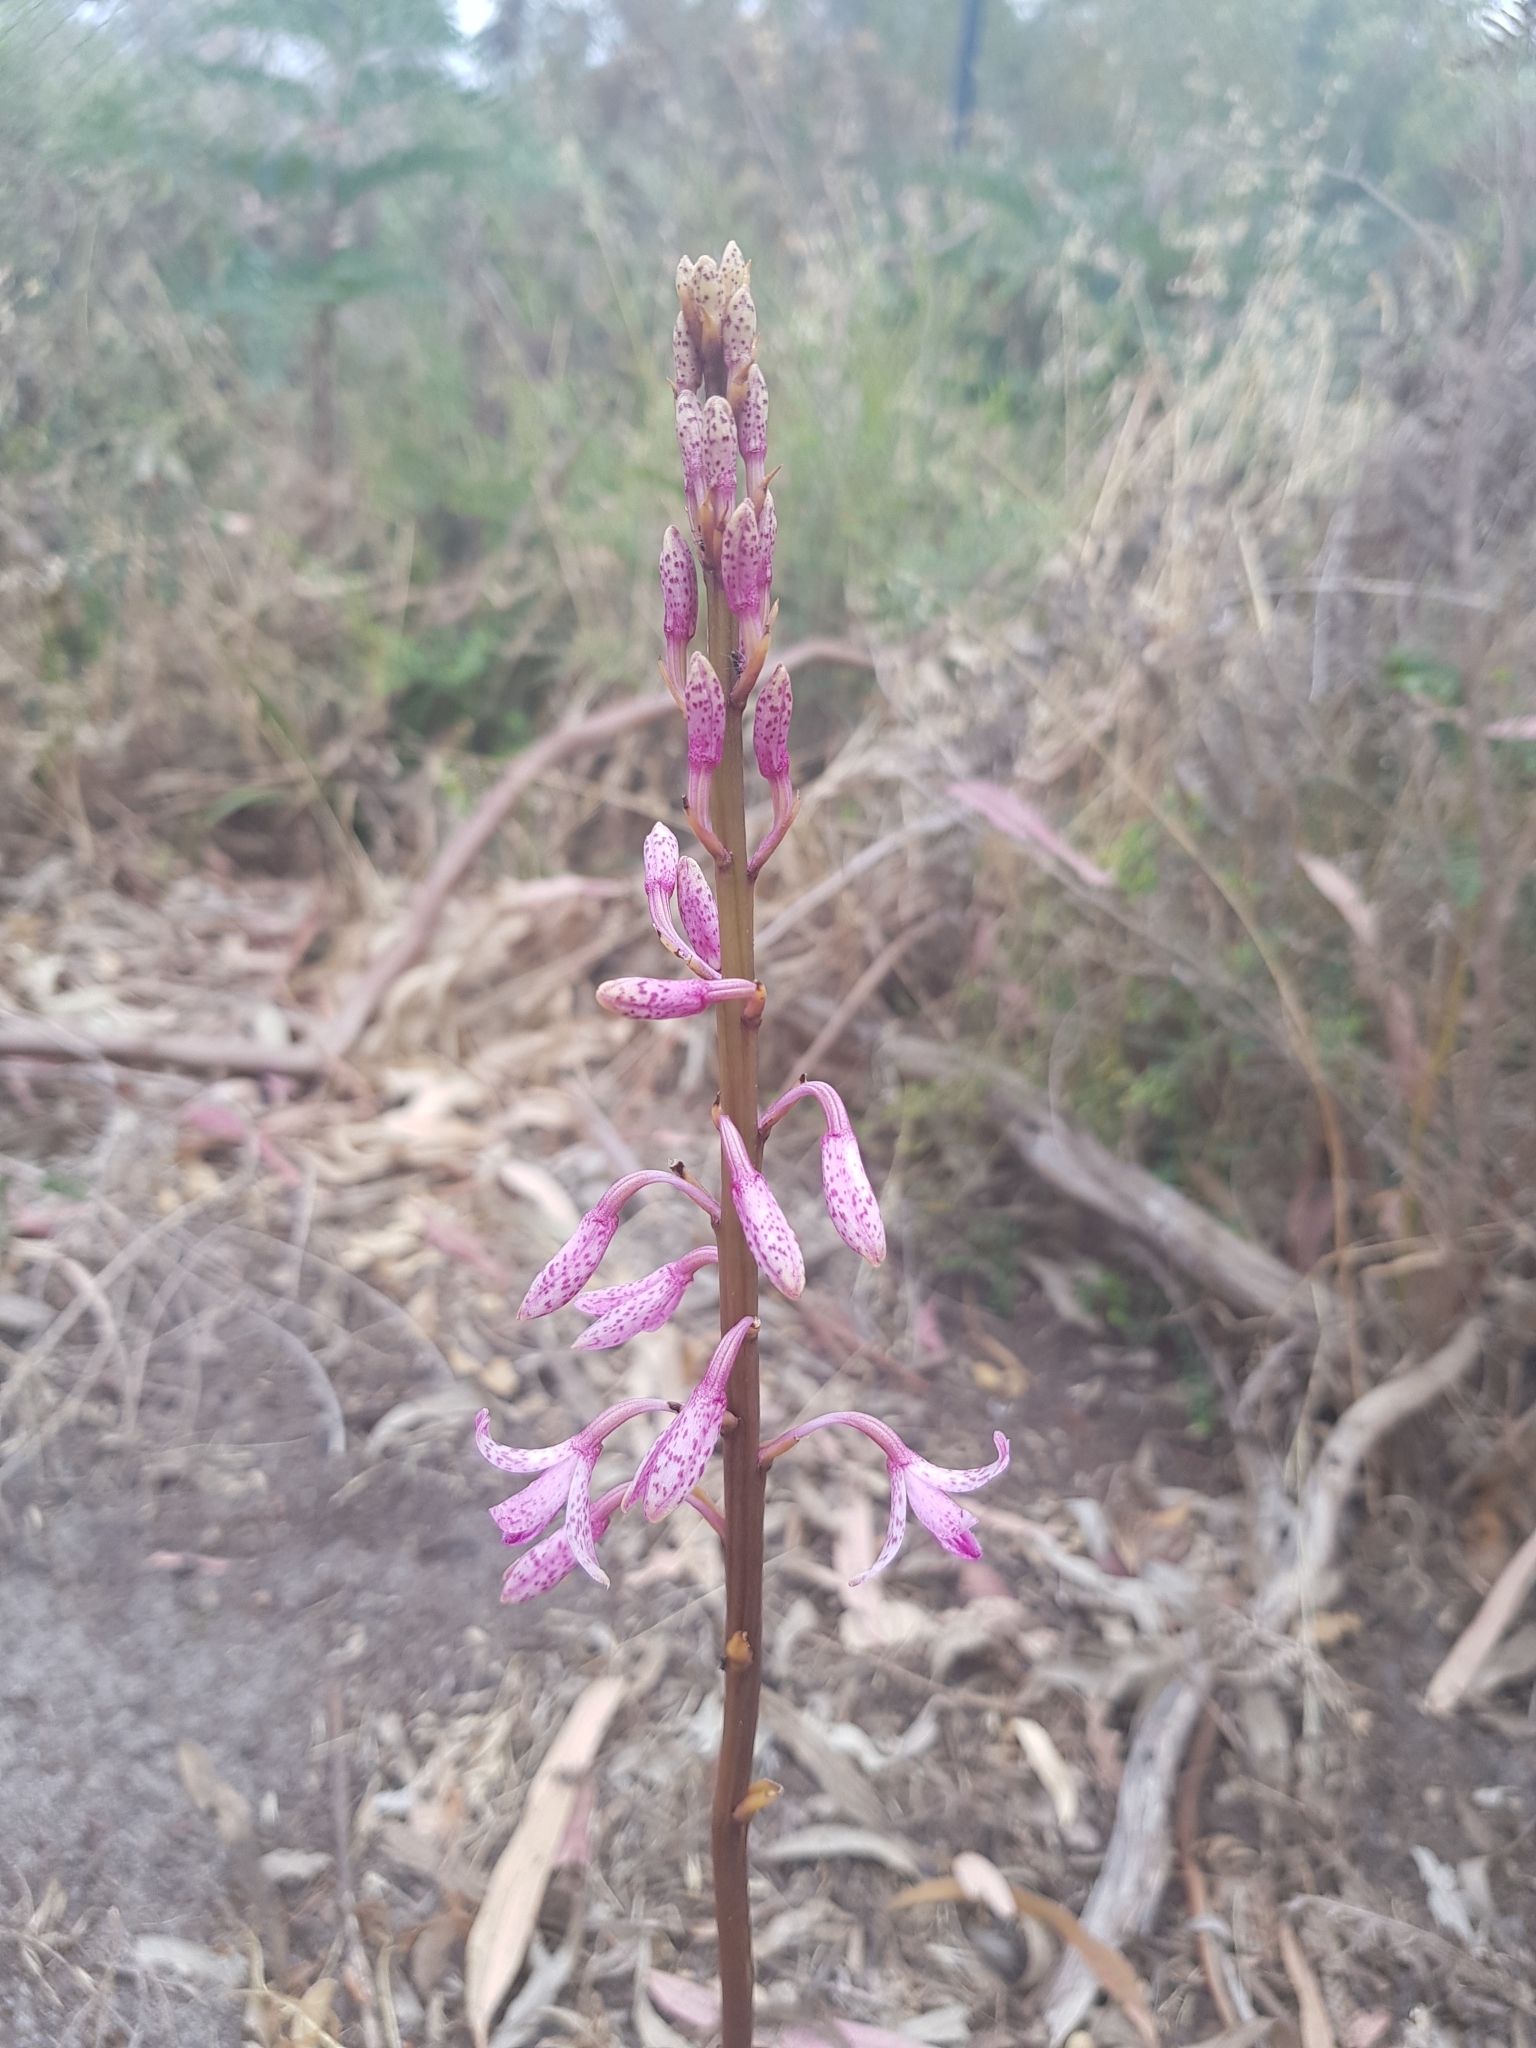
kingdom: Plantae
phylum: Tracheophyta
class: Liliopsida
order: Asparagales
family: Orchidaceae
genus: Dipodium
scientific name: Dipodium roseum
